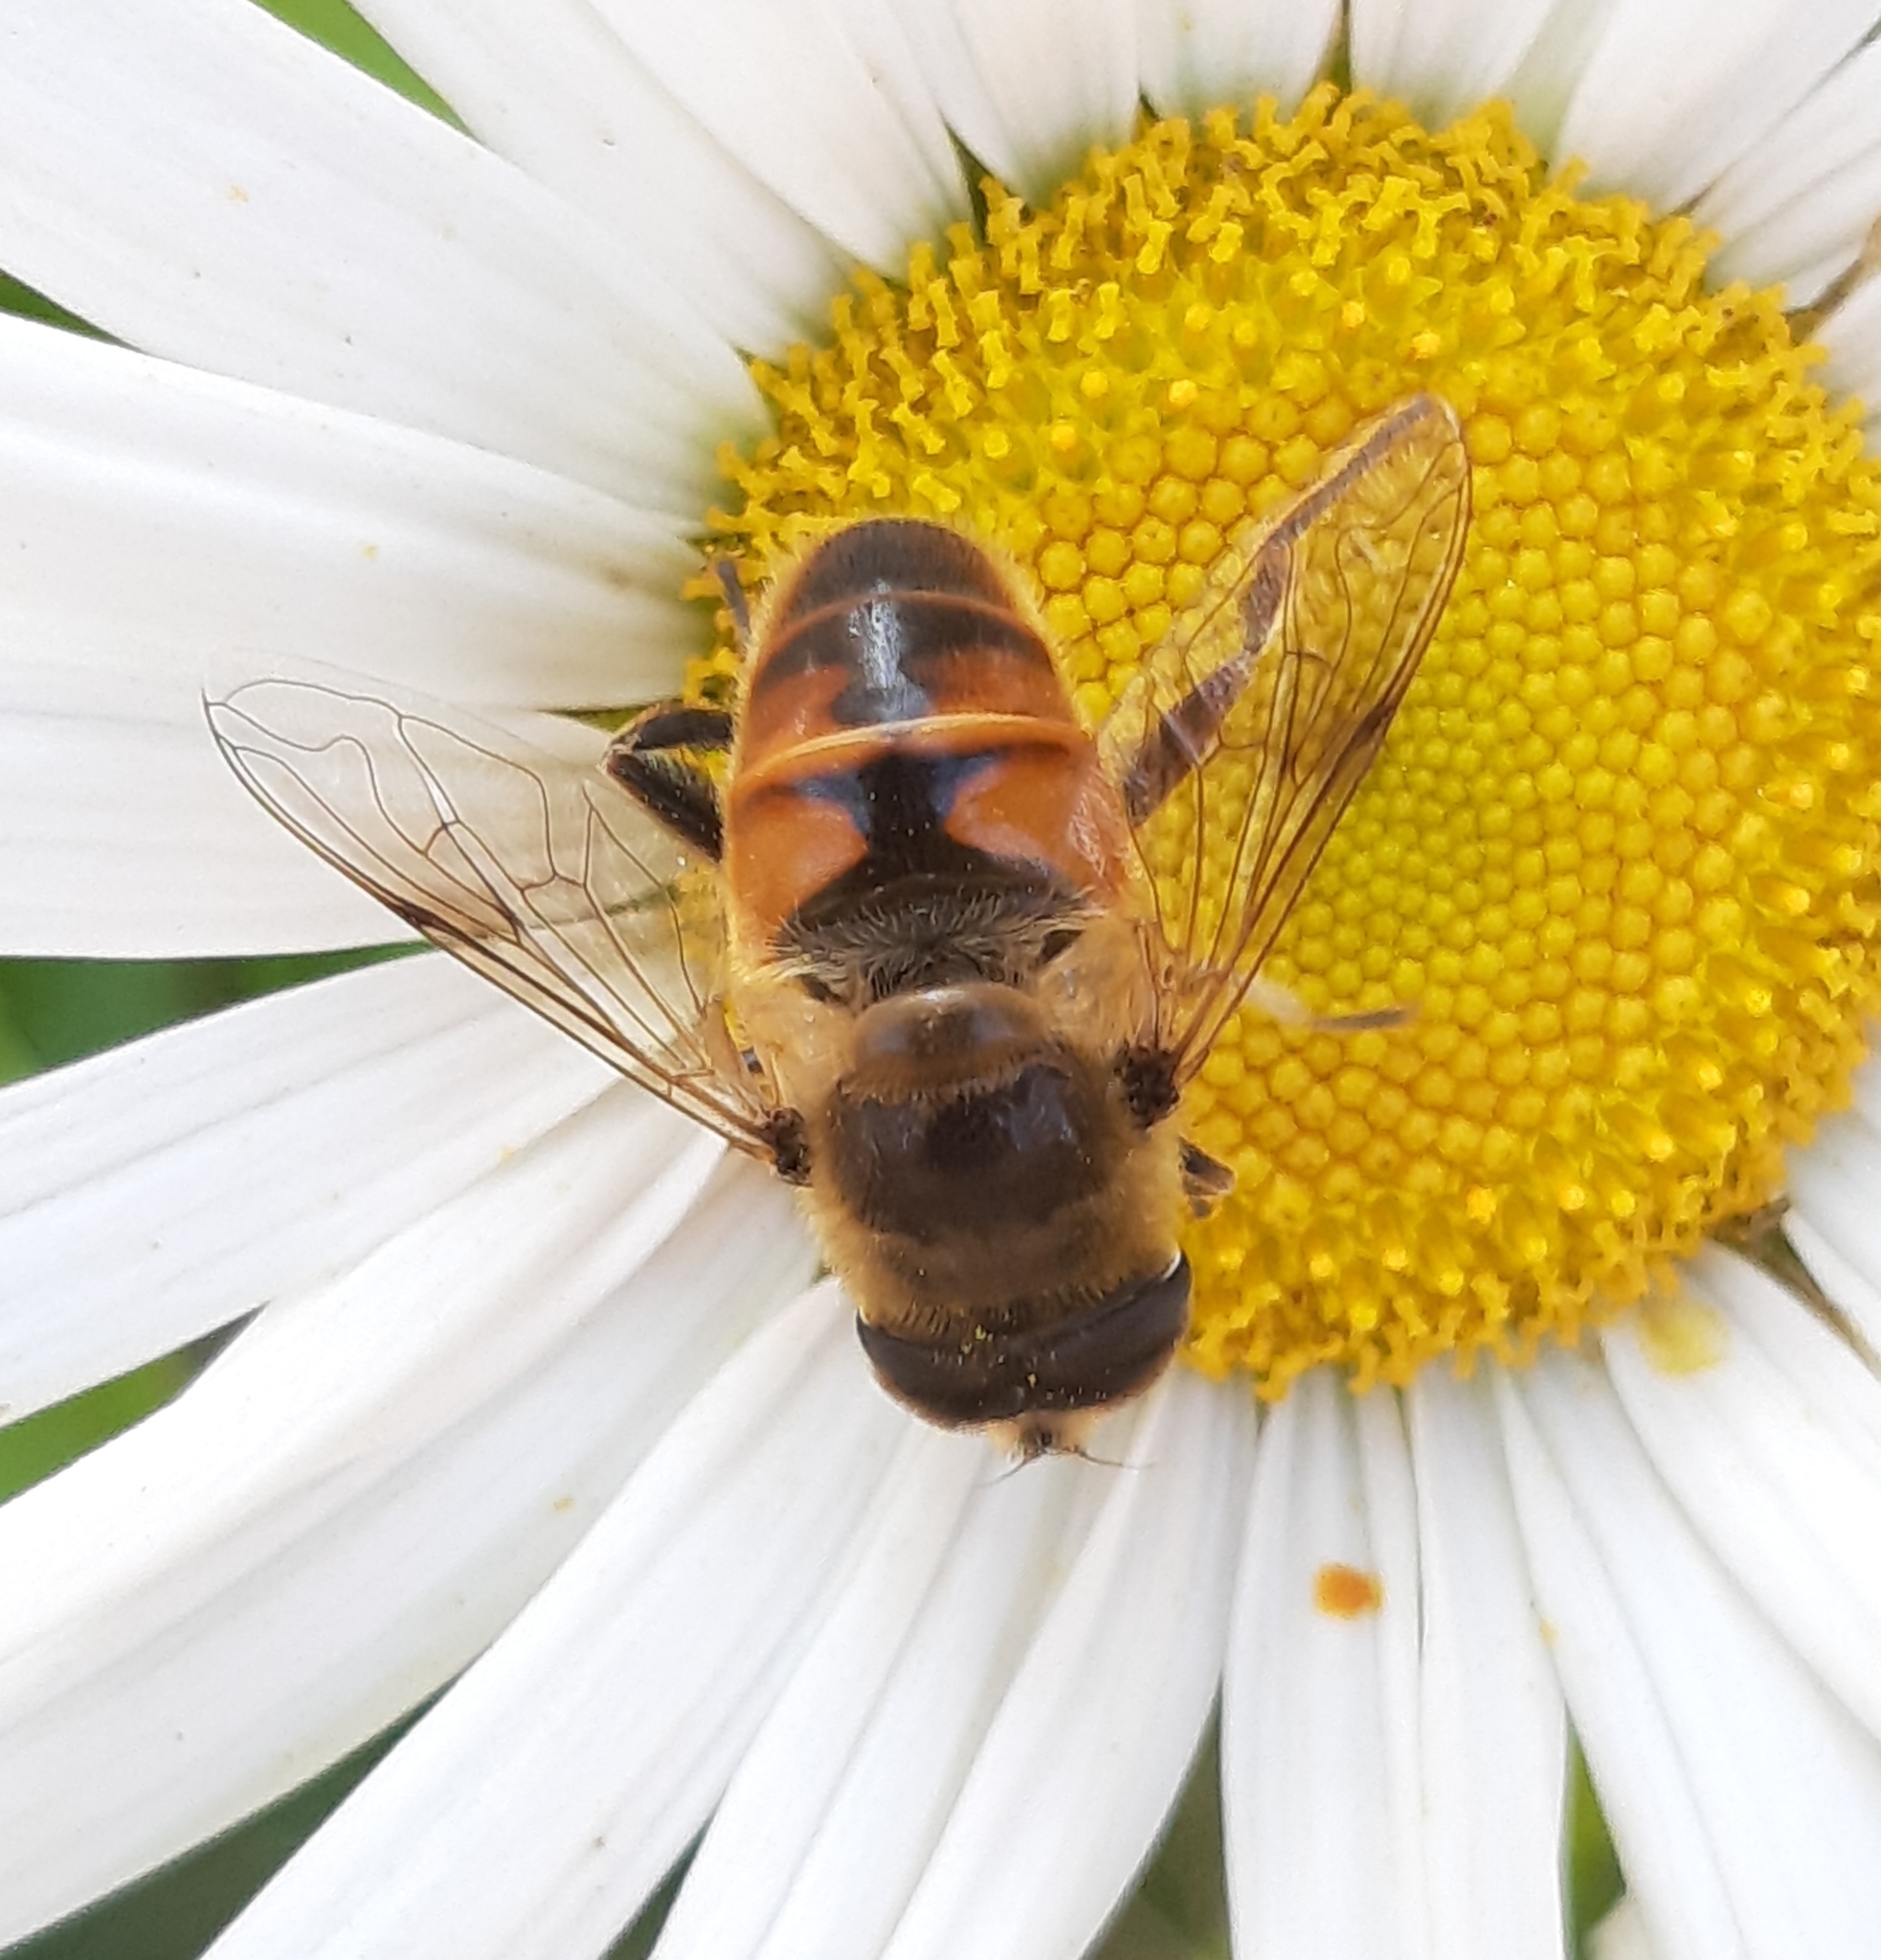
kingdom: Animalia
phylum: Arthropoda
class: Insecta
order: Diptera
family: Syrphidae
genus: Eristalis
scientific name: Eristalis tenax
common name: Drone fly
